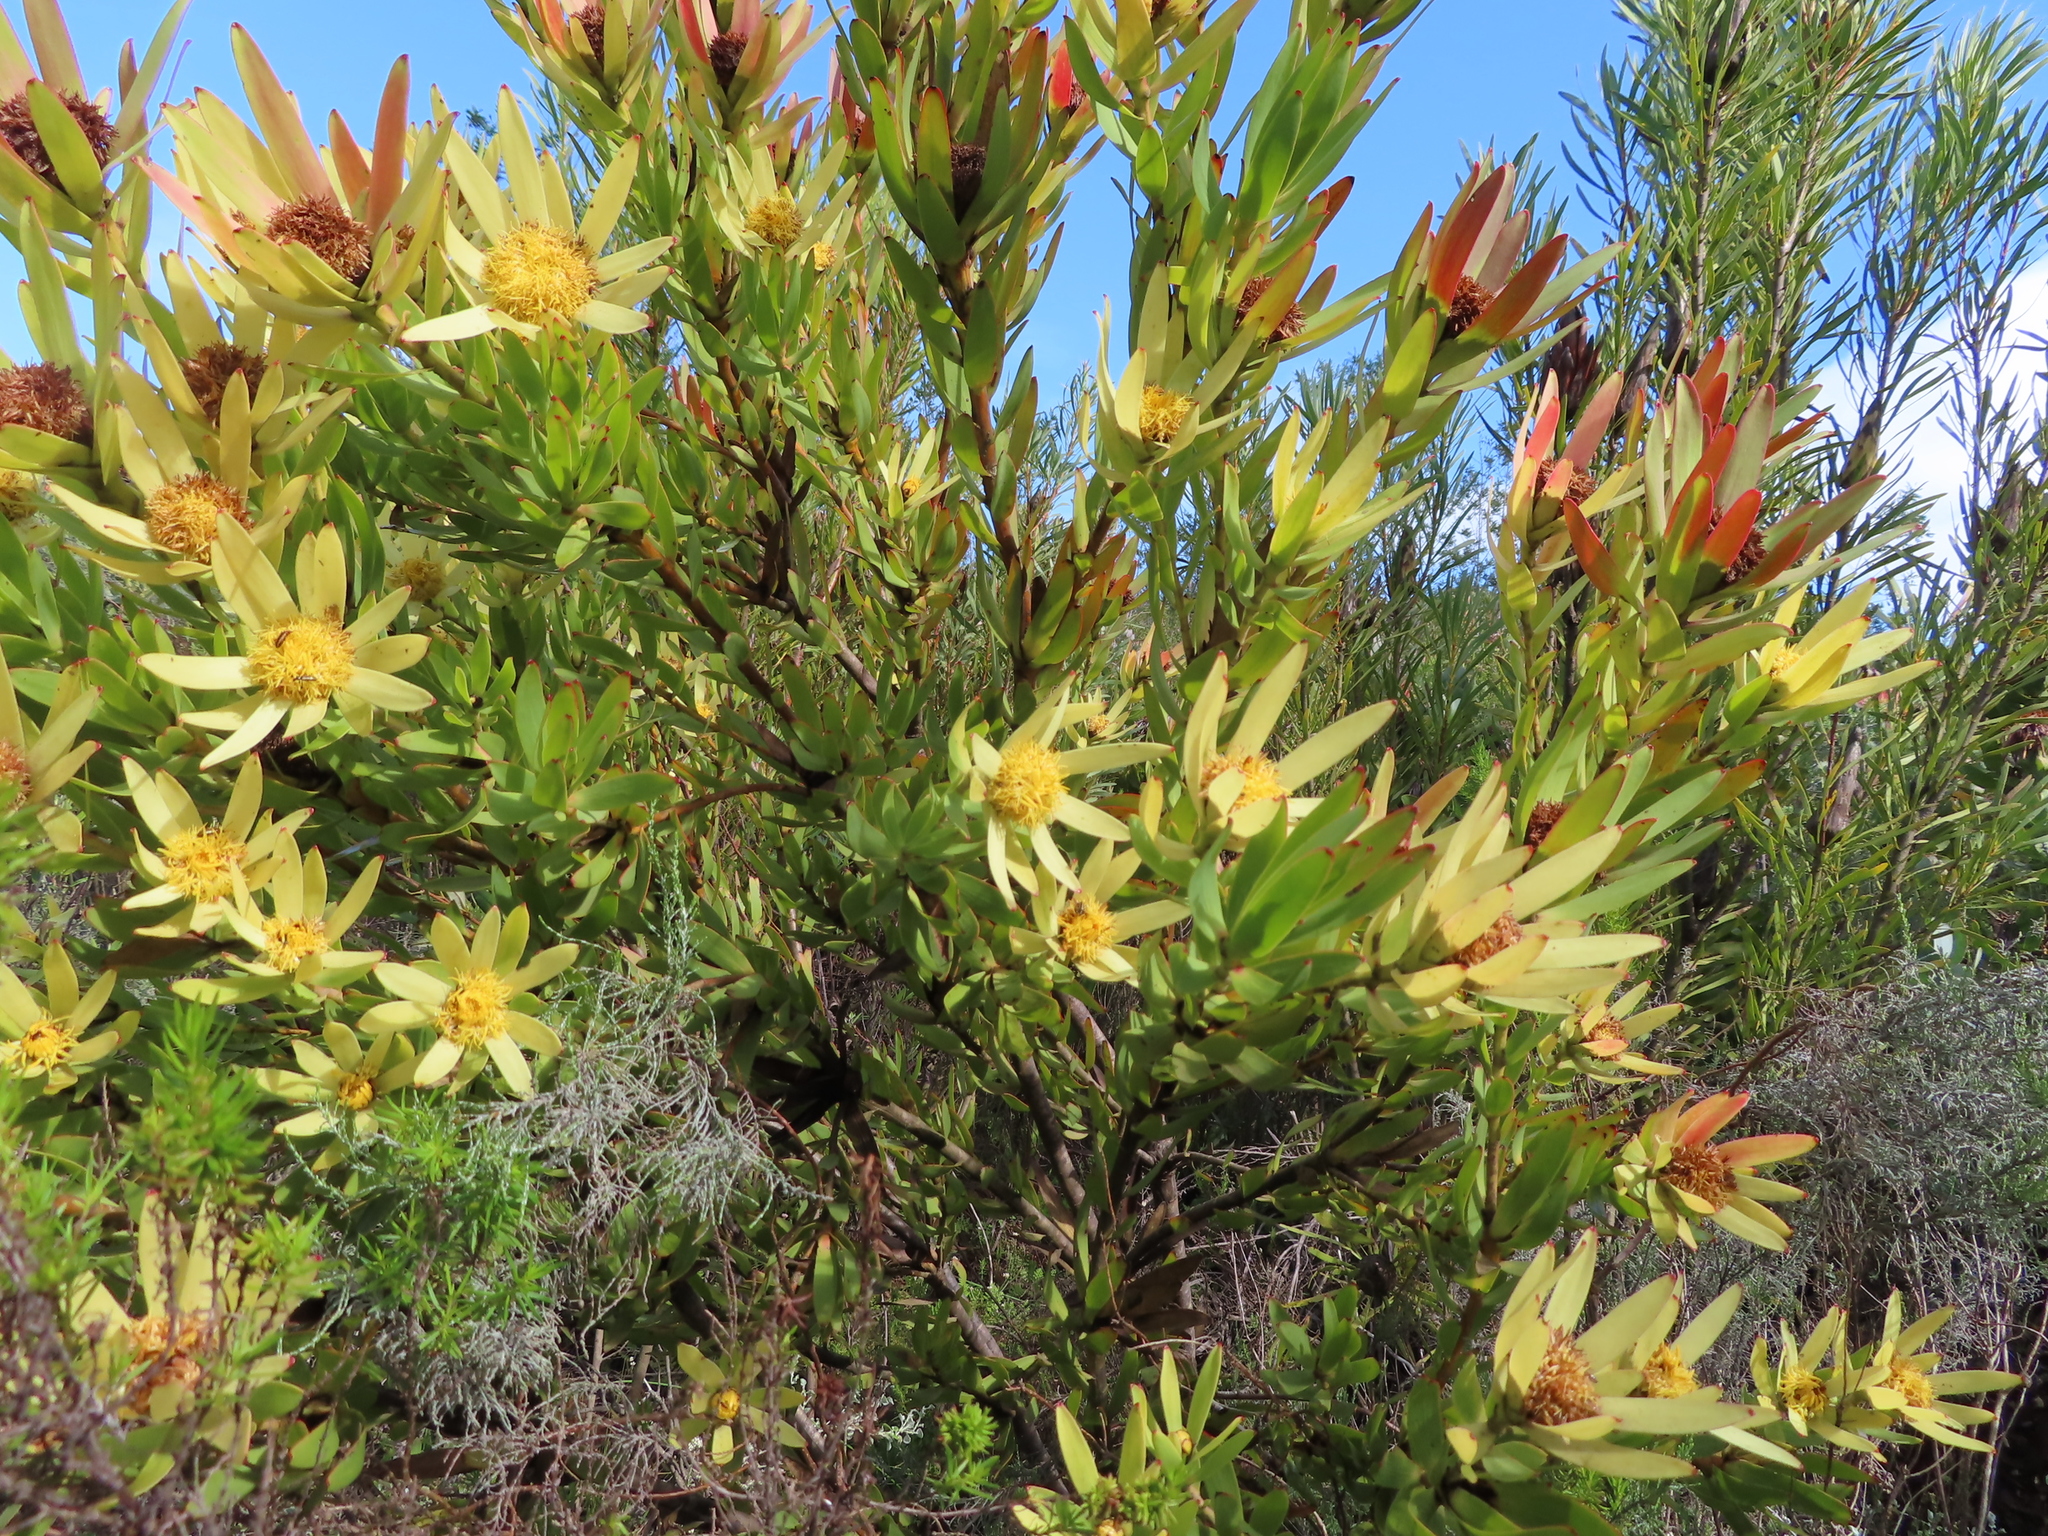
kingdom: Plantae
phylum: Tracheophyta
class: Magnoliopsida
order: Proteales
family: Proteaceae
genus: Leucadendron
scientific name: Leucadendron sessile
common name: Western sunbush
